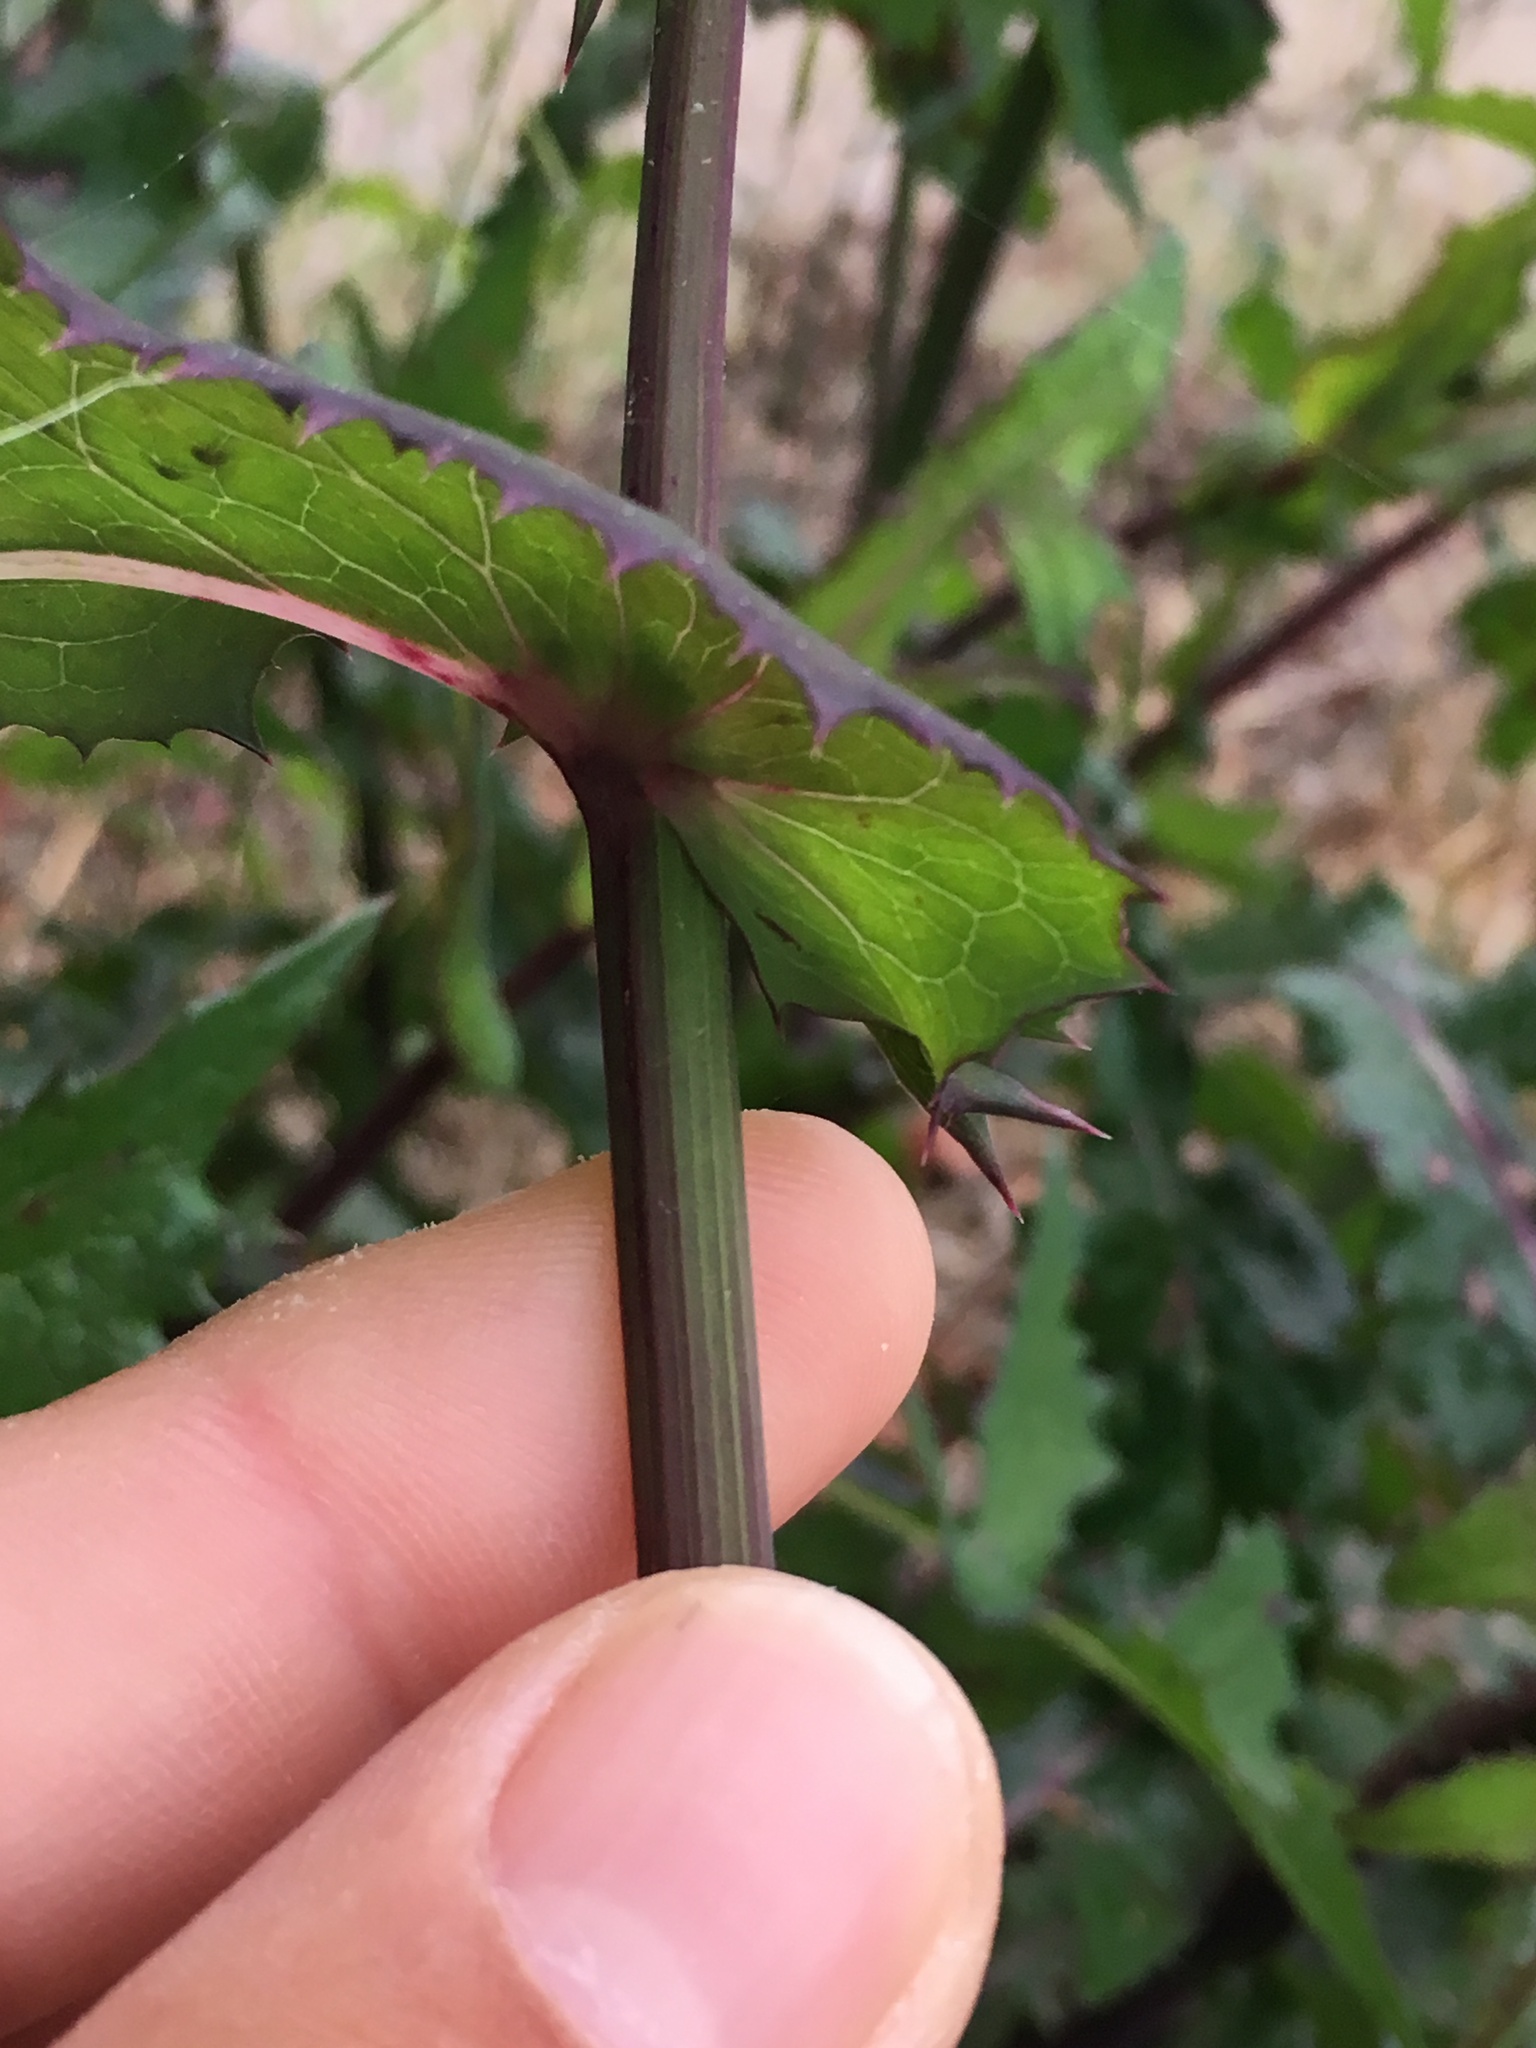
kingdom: Plantae
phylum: Tracheophyta
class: Magnoliopsida
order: Asterales
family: Asteraceae
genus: Sonchus
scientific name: Sonchus oleraceus
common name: Common sowthistle
